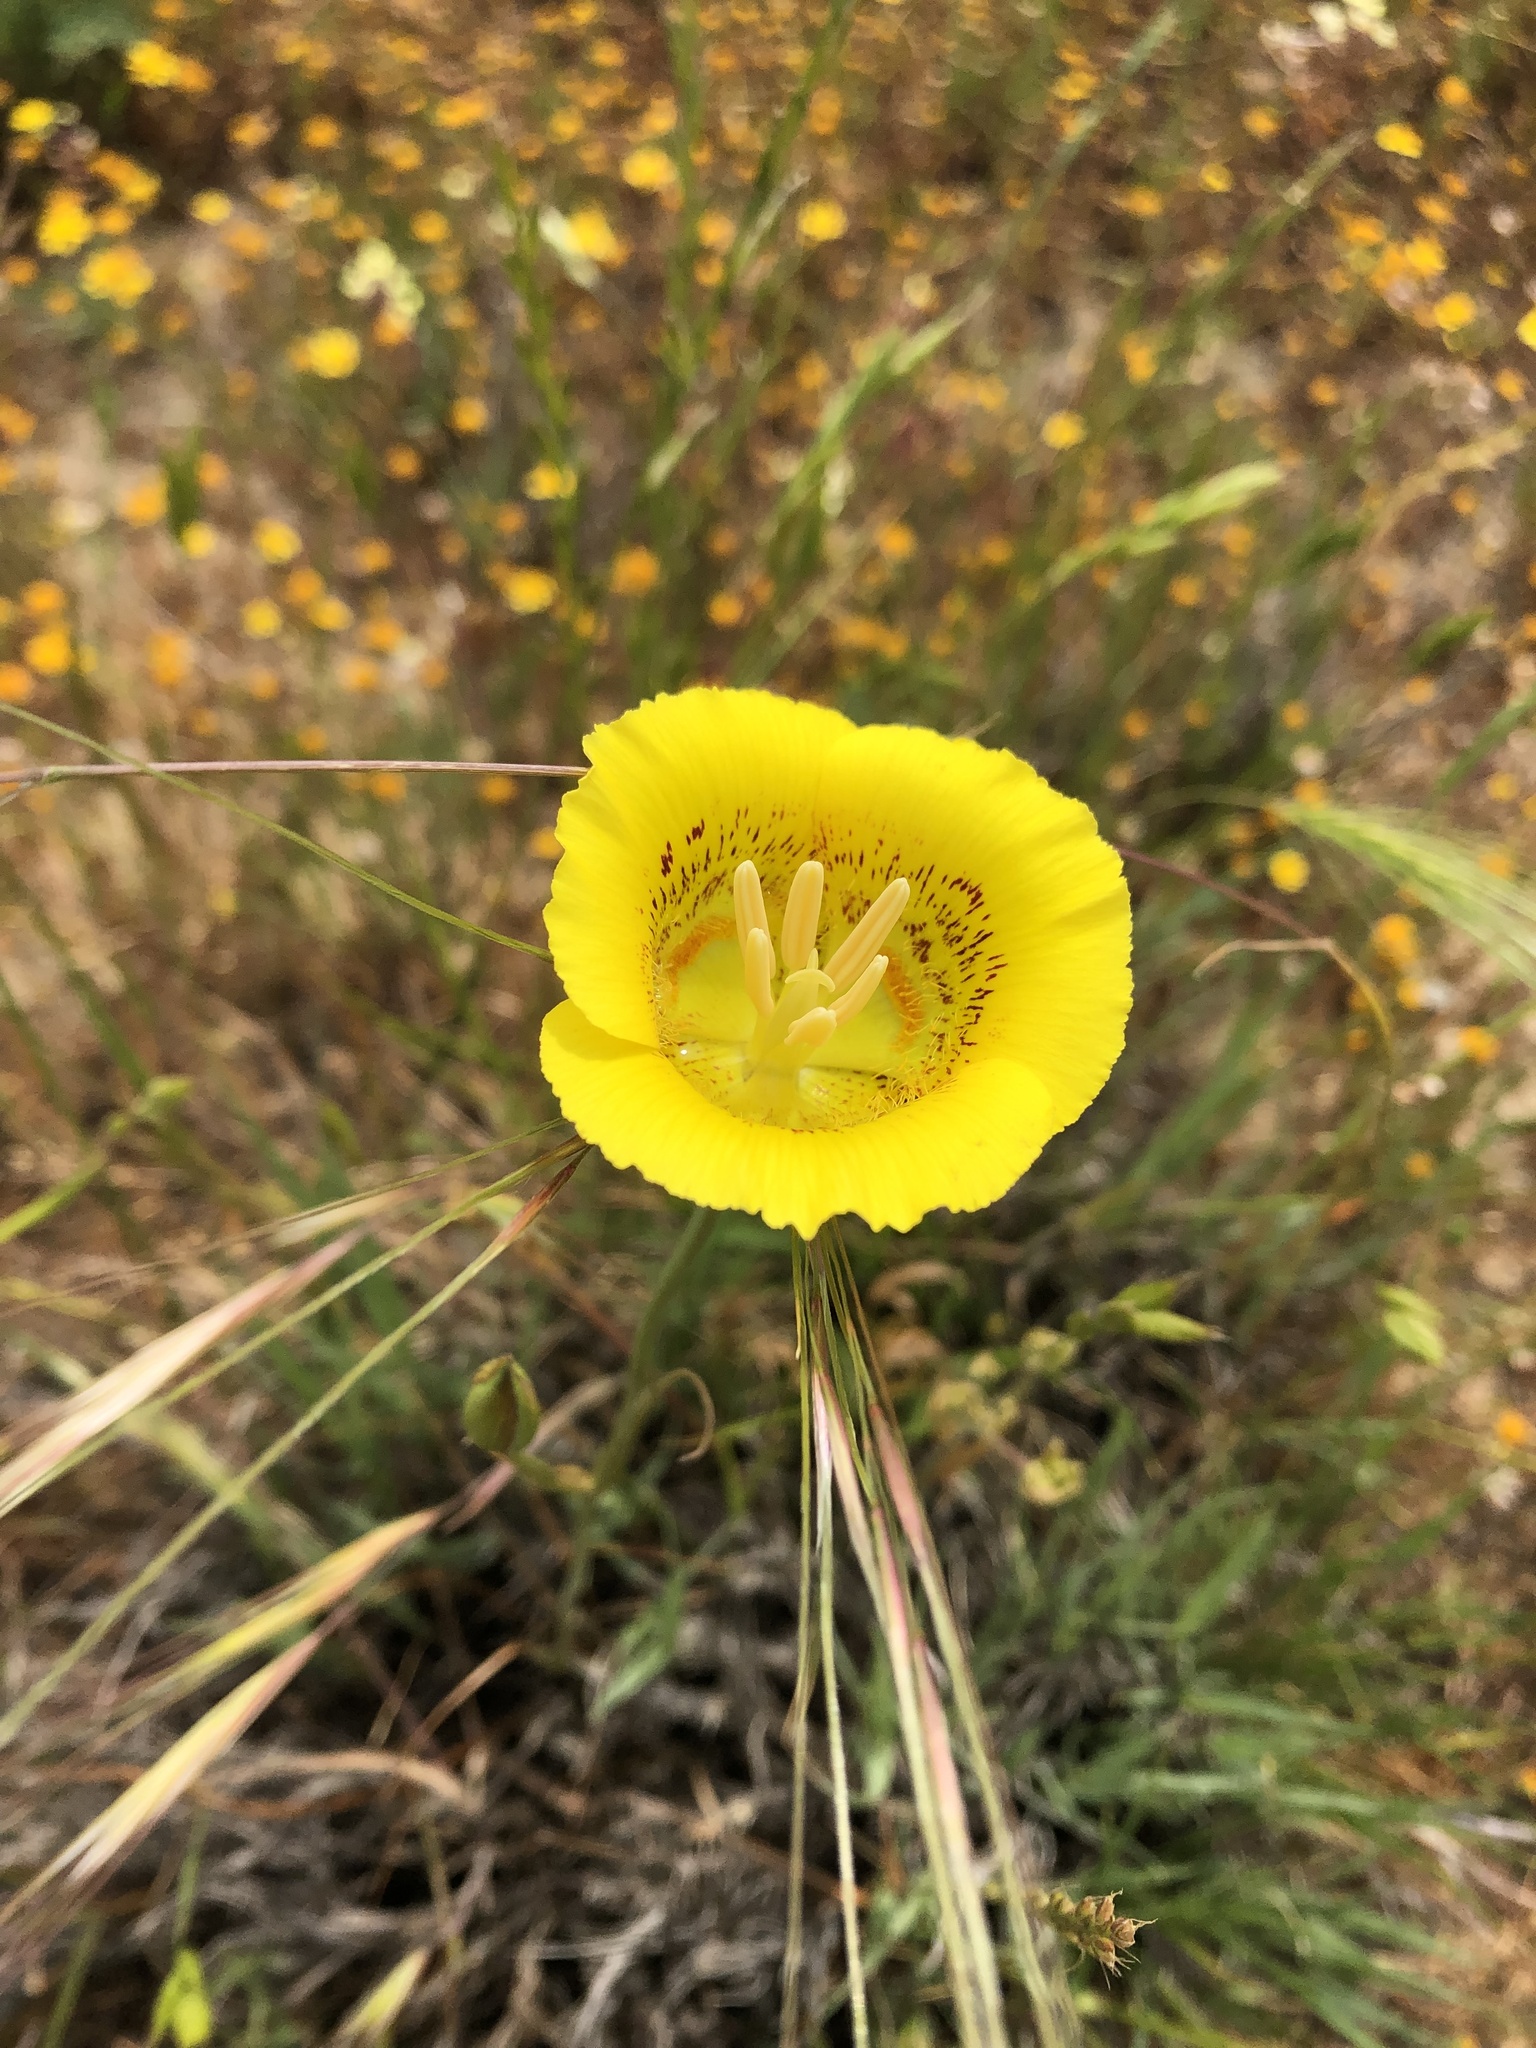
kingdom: Plantae
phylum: Tracheophyta
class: Liliopsida
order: Liliales
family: Liliaceae
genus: Calochortus
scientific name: Calochortus luteus
